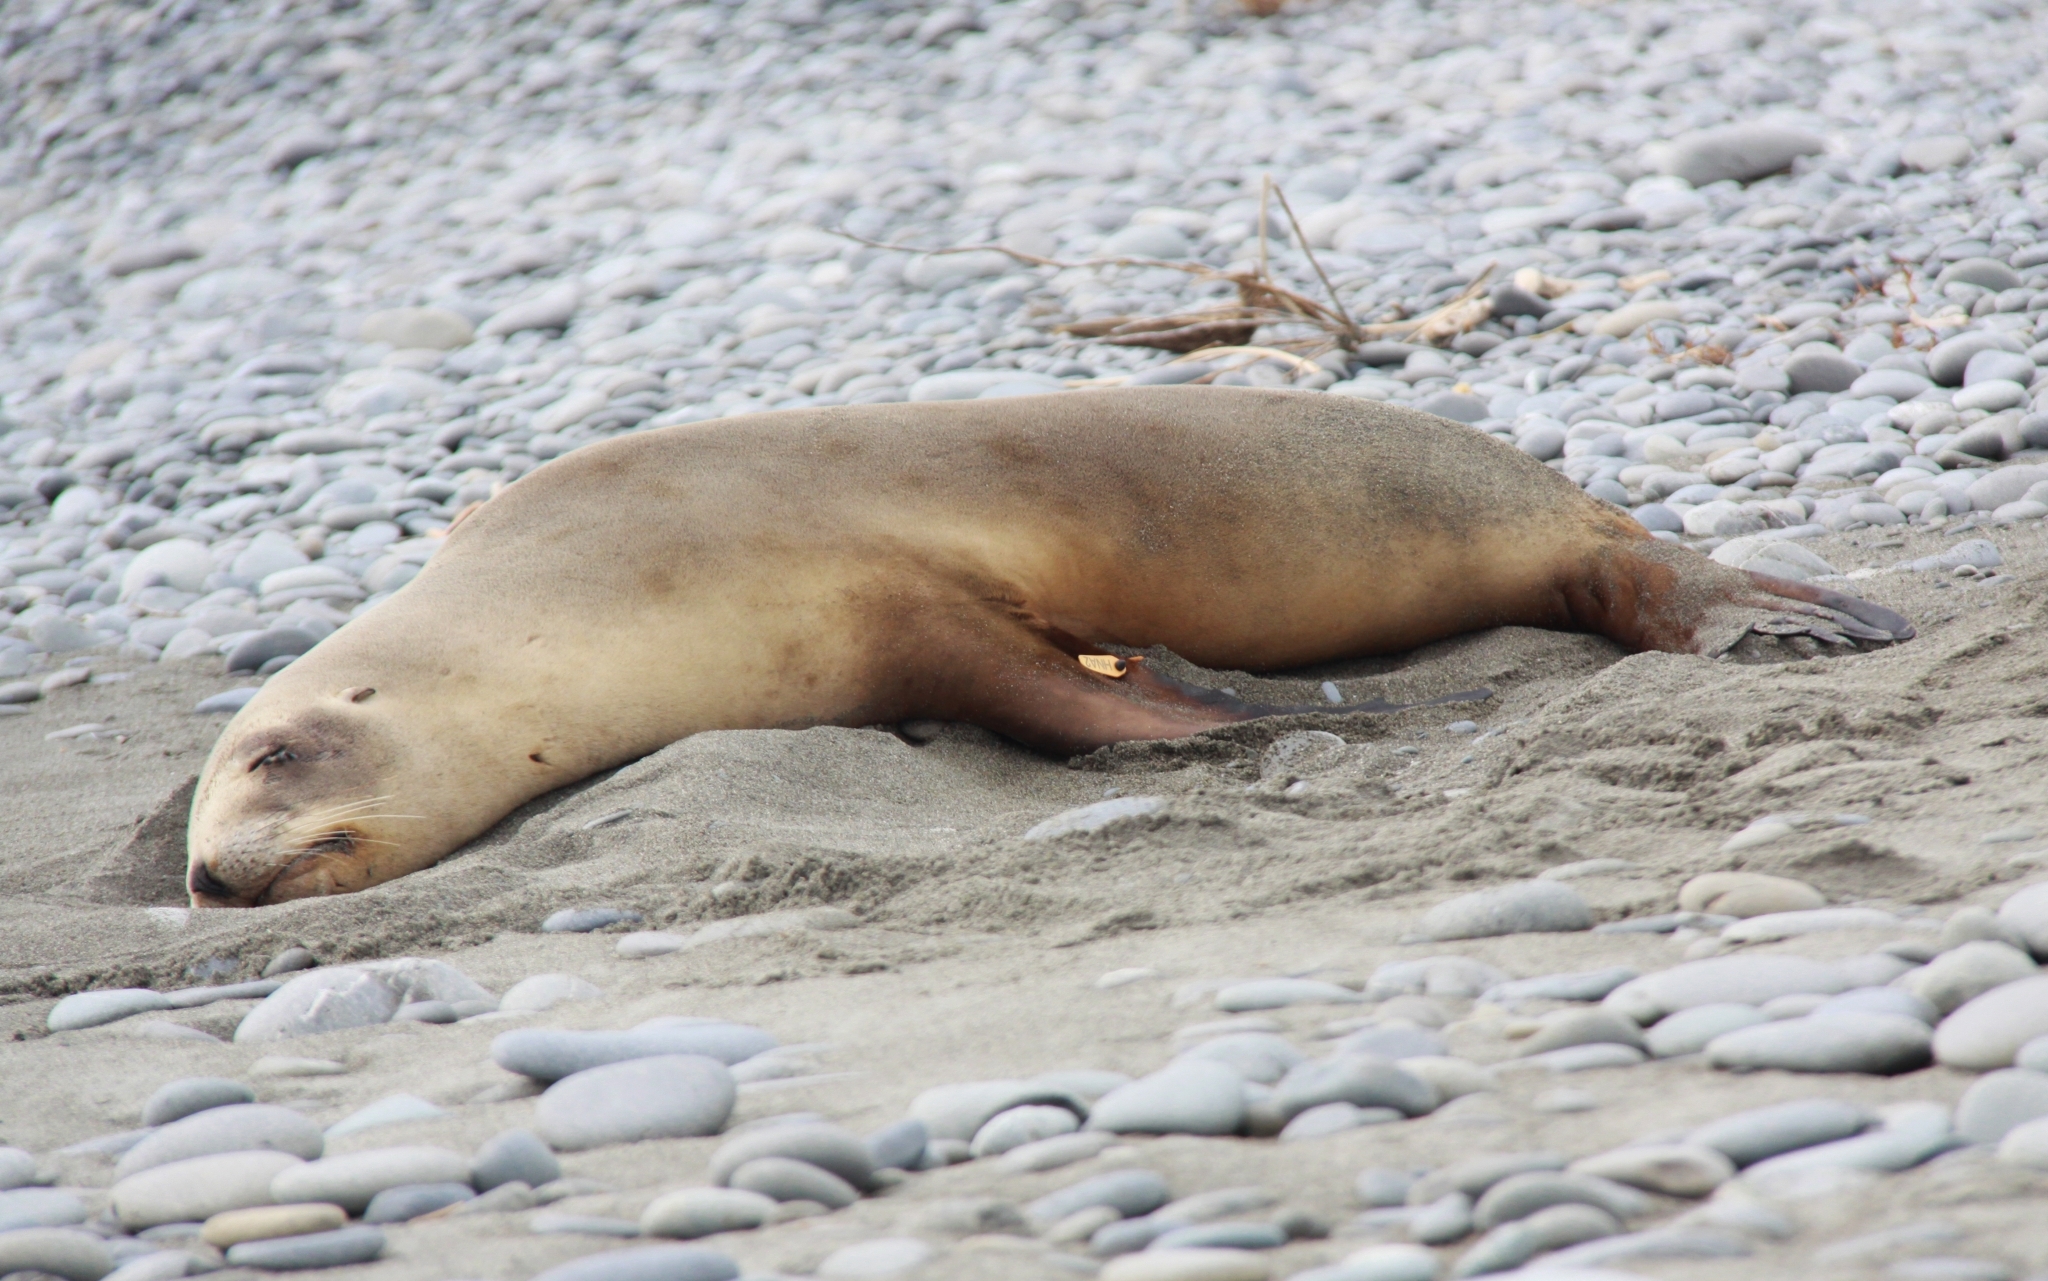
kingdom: Animalia
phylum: Chordata
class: Mammalia
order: Carnivora
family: Otariidae
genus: Phocarctos
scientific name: Phocarctos hookeri
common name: New zealand sea lion
